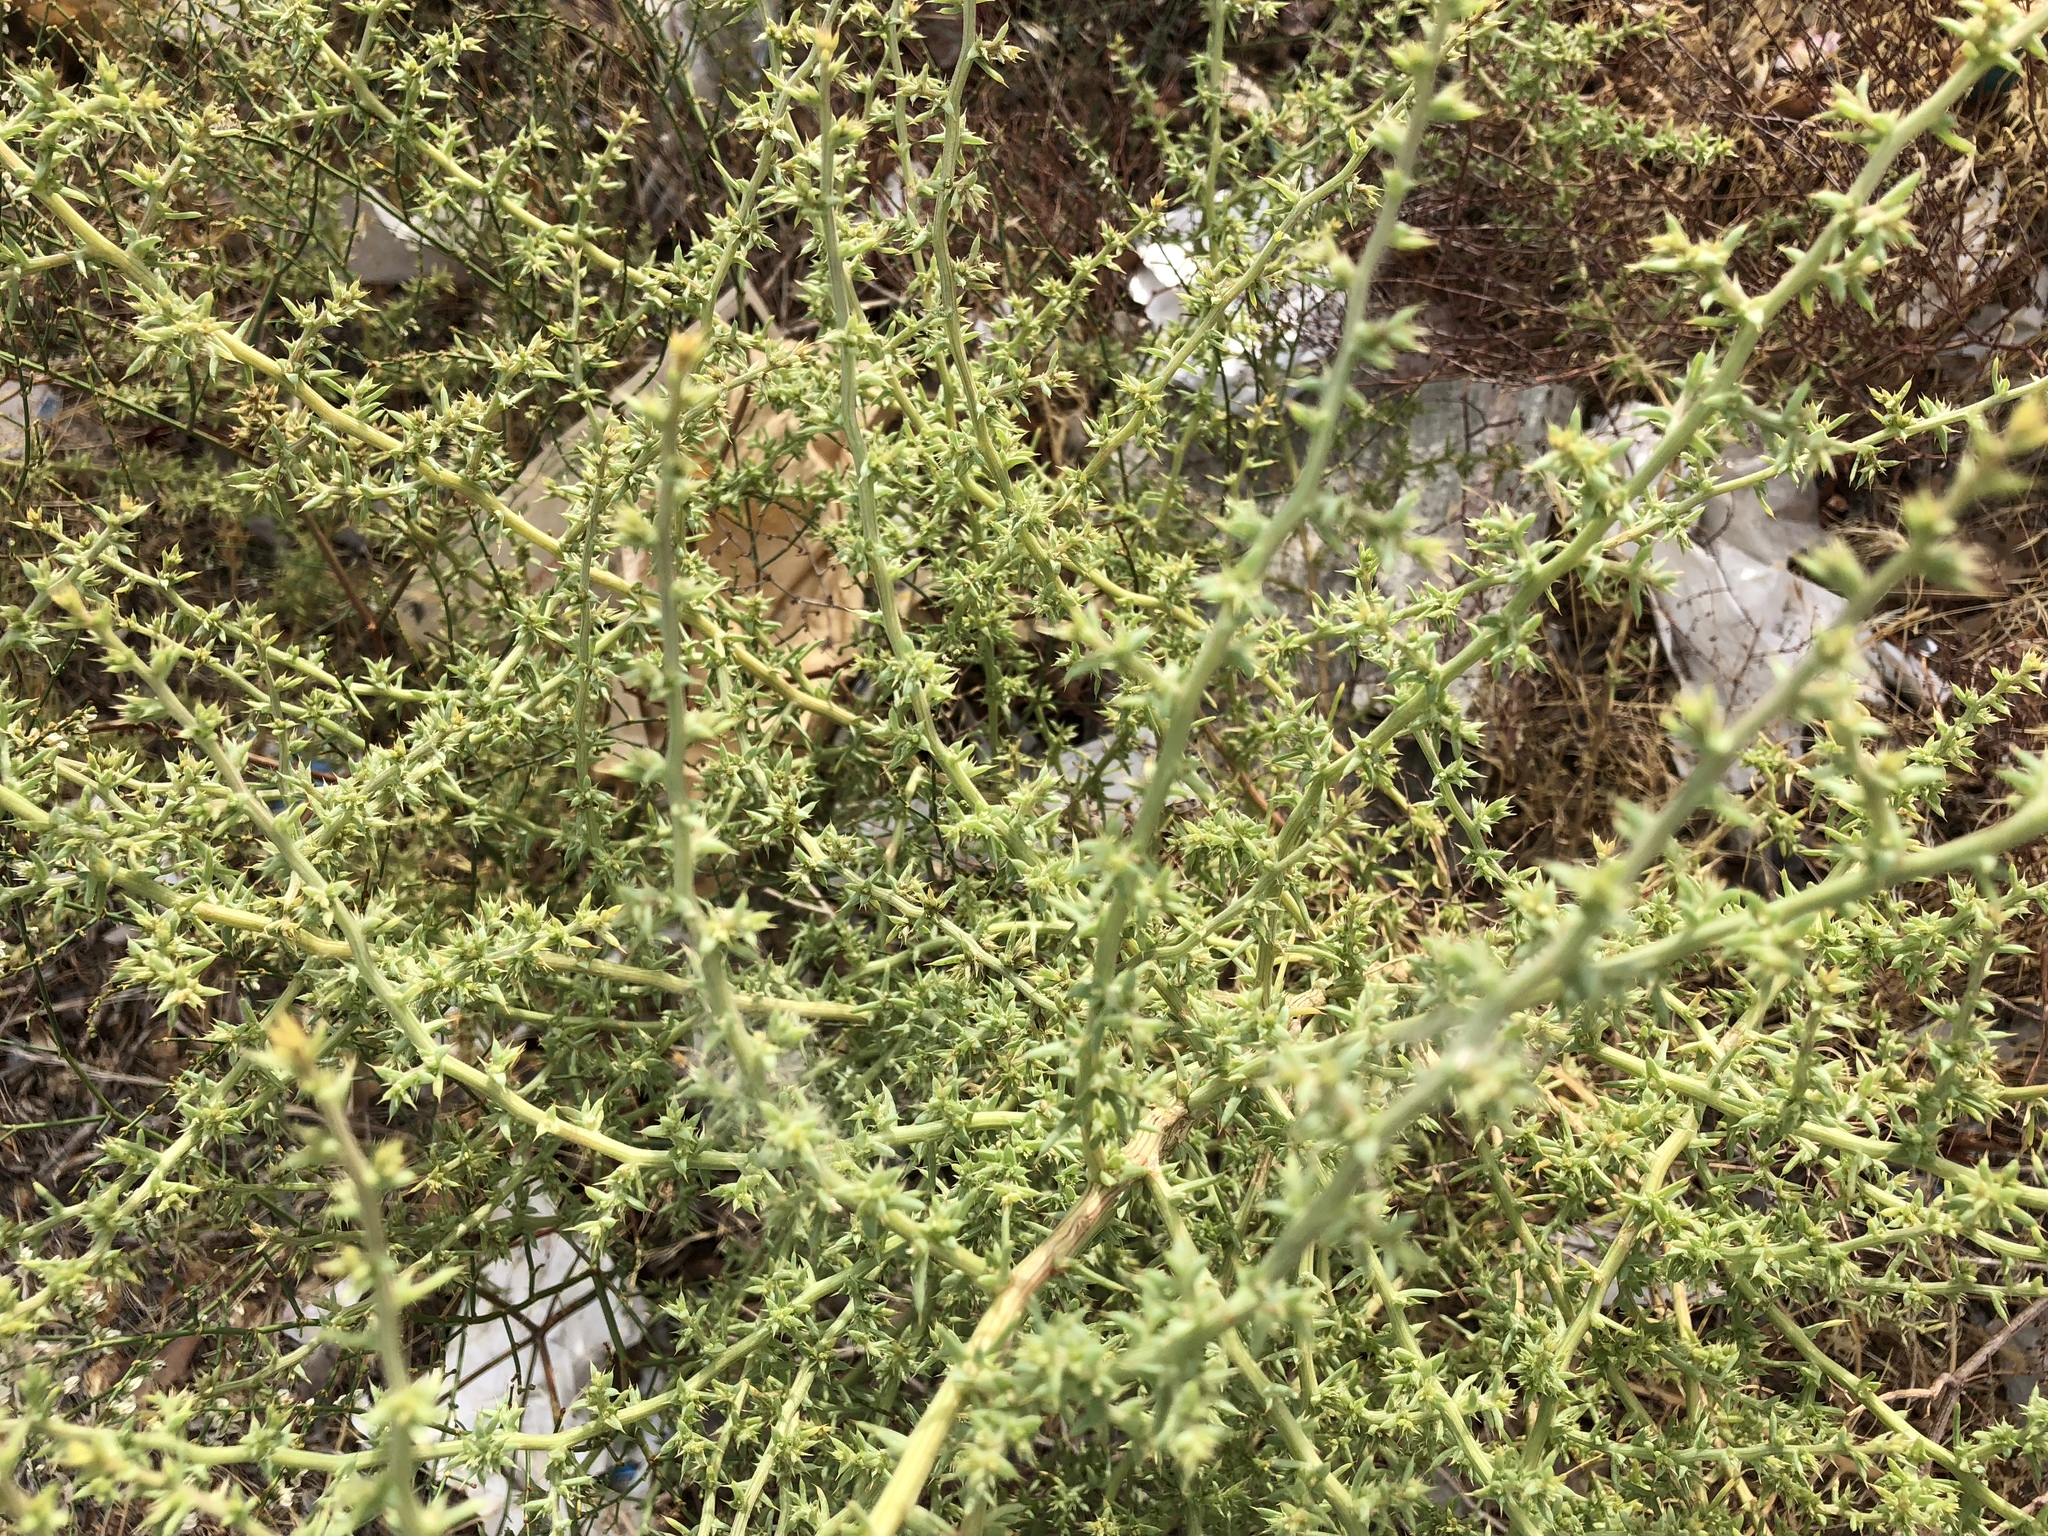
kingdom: Plantae
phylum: Tracheophyta
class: Magnoliopsida
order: Caryophyllales
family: Amaranthaceae
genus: Salsola
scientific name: Salsola tragus
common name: Prickly russian thistle
